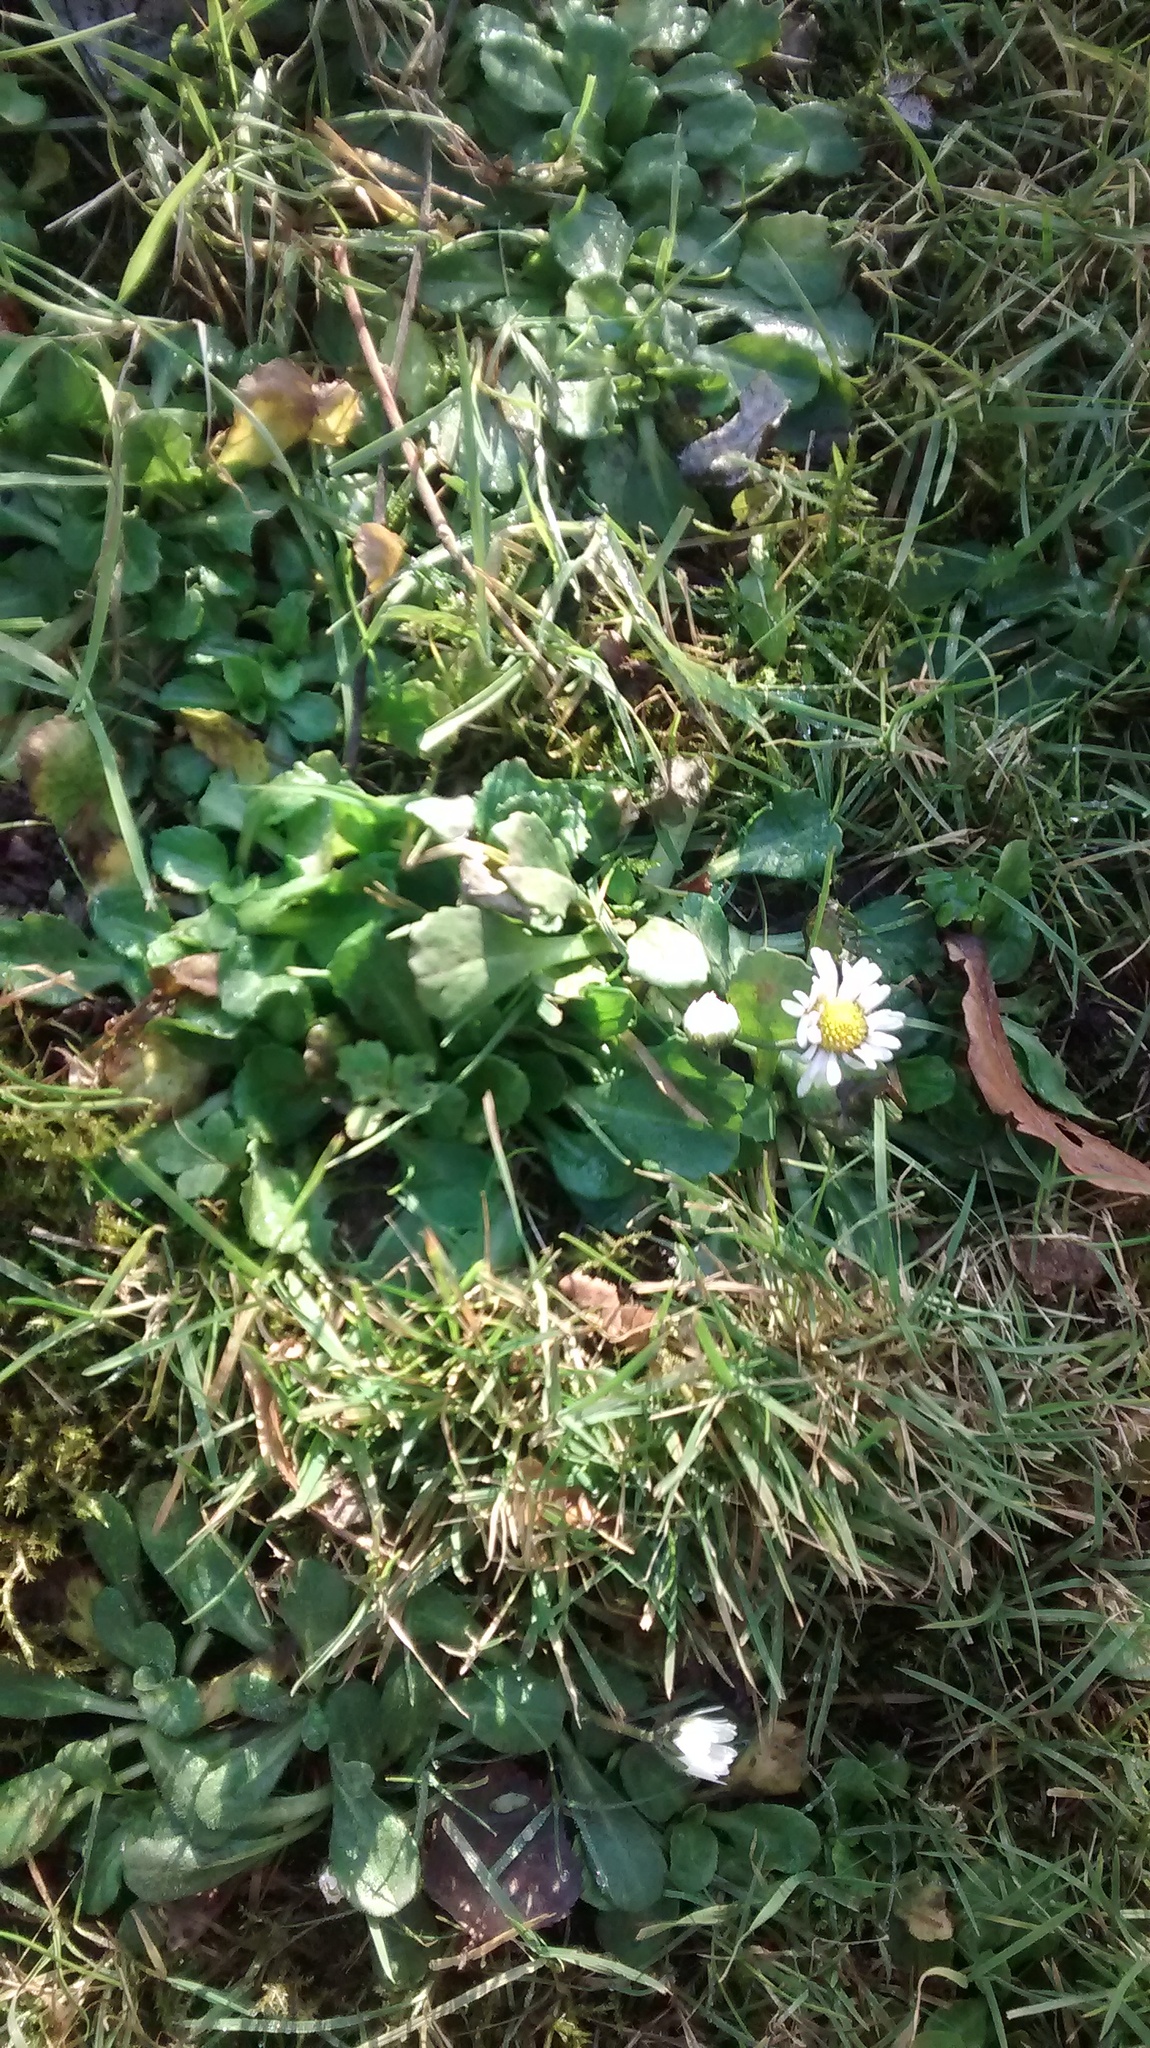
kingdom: Plantae
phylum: Tracheophyta
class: Magnoliopsida
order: Asterales
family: Asteraceae
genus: Bellis
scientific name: Bellis perennis
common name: Lawndaisy
